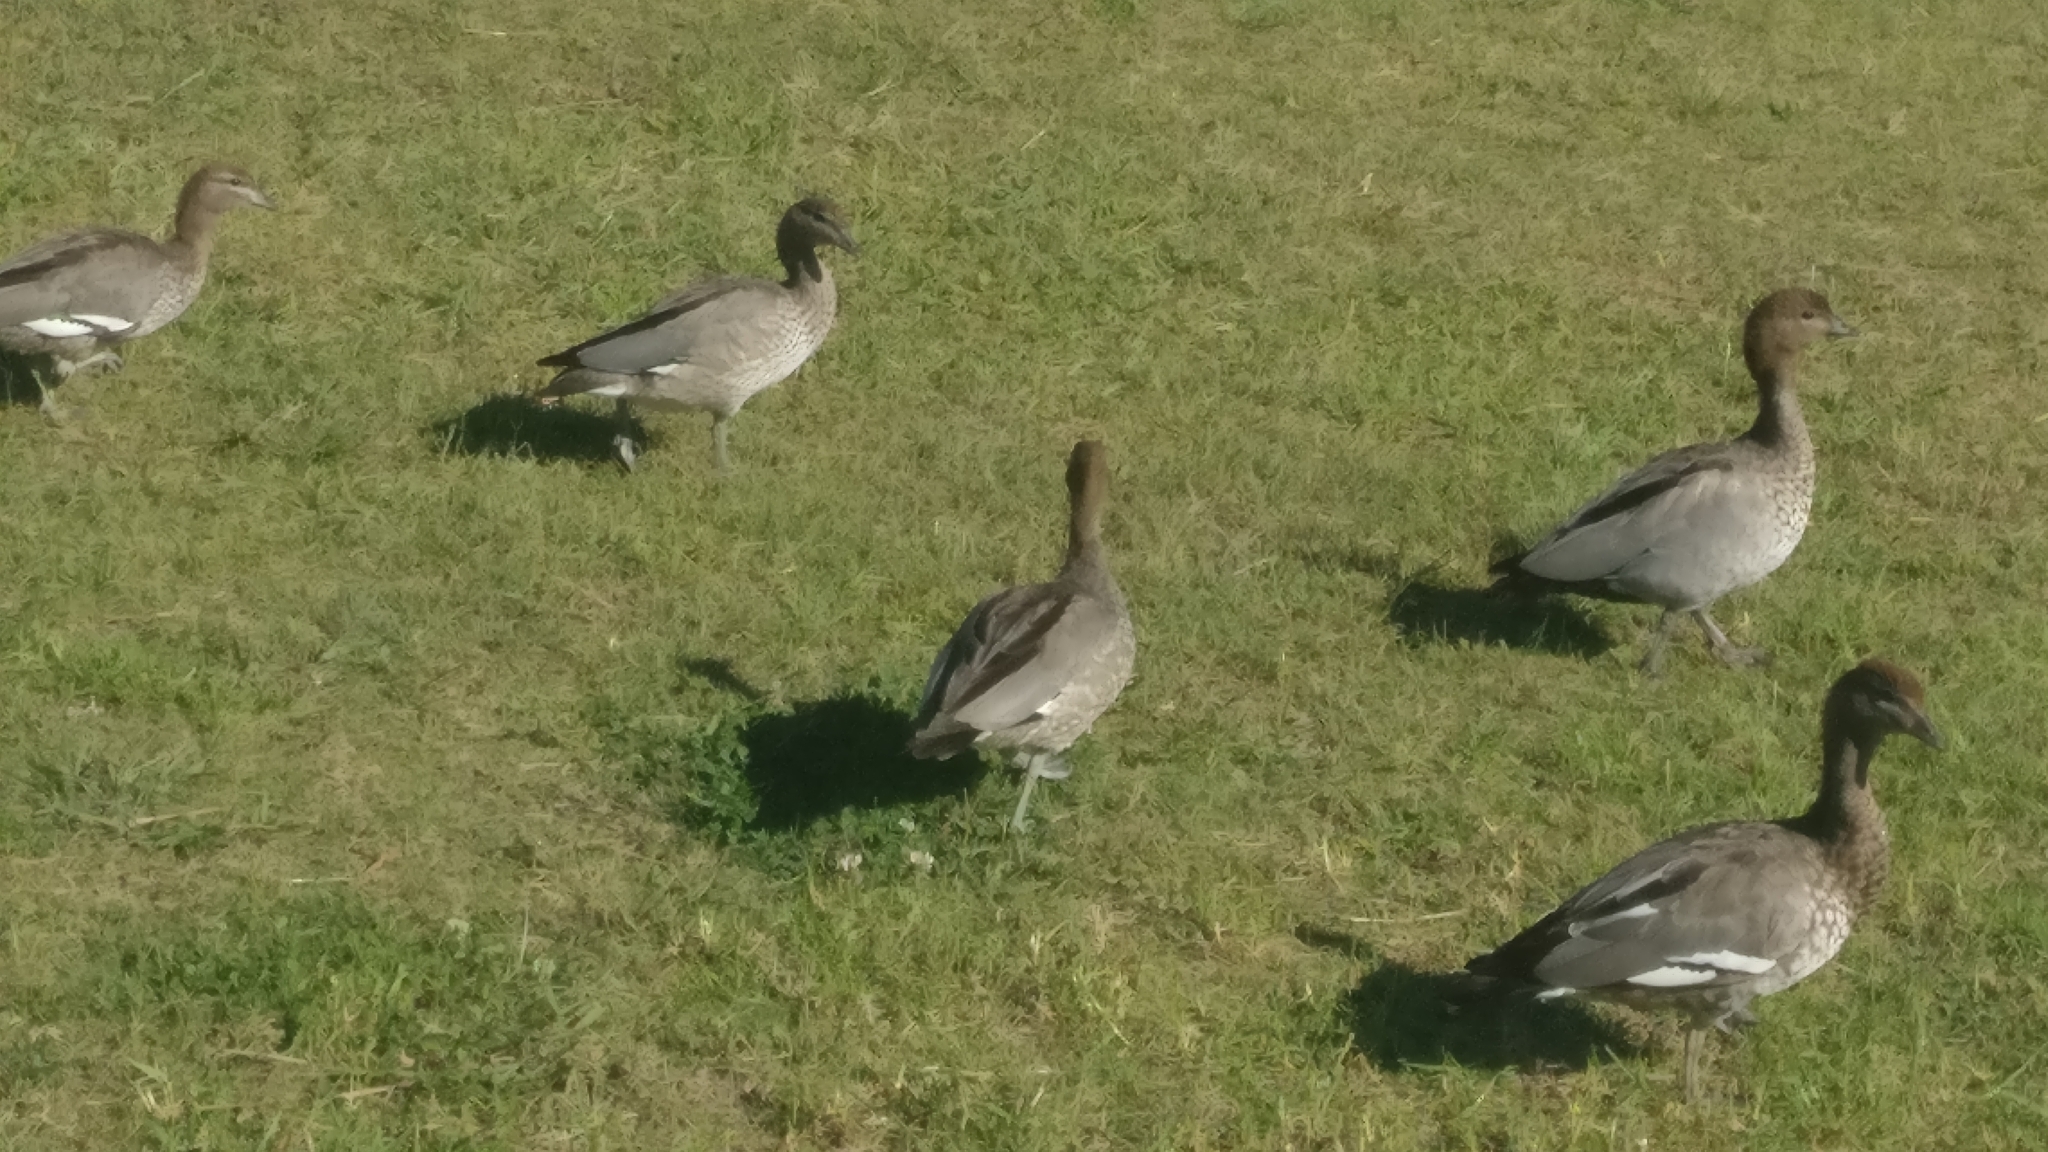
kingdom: Animalia
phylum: Chordata
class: Aves
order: Anseriformes
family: Anatidae
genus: Chenonetta
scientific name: Chenonetta jubata
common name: Maned duck
